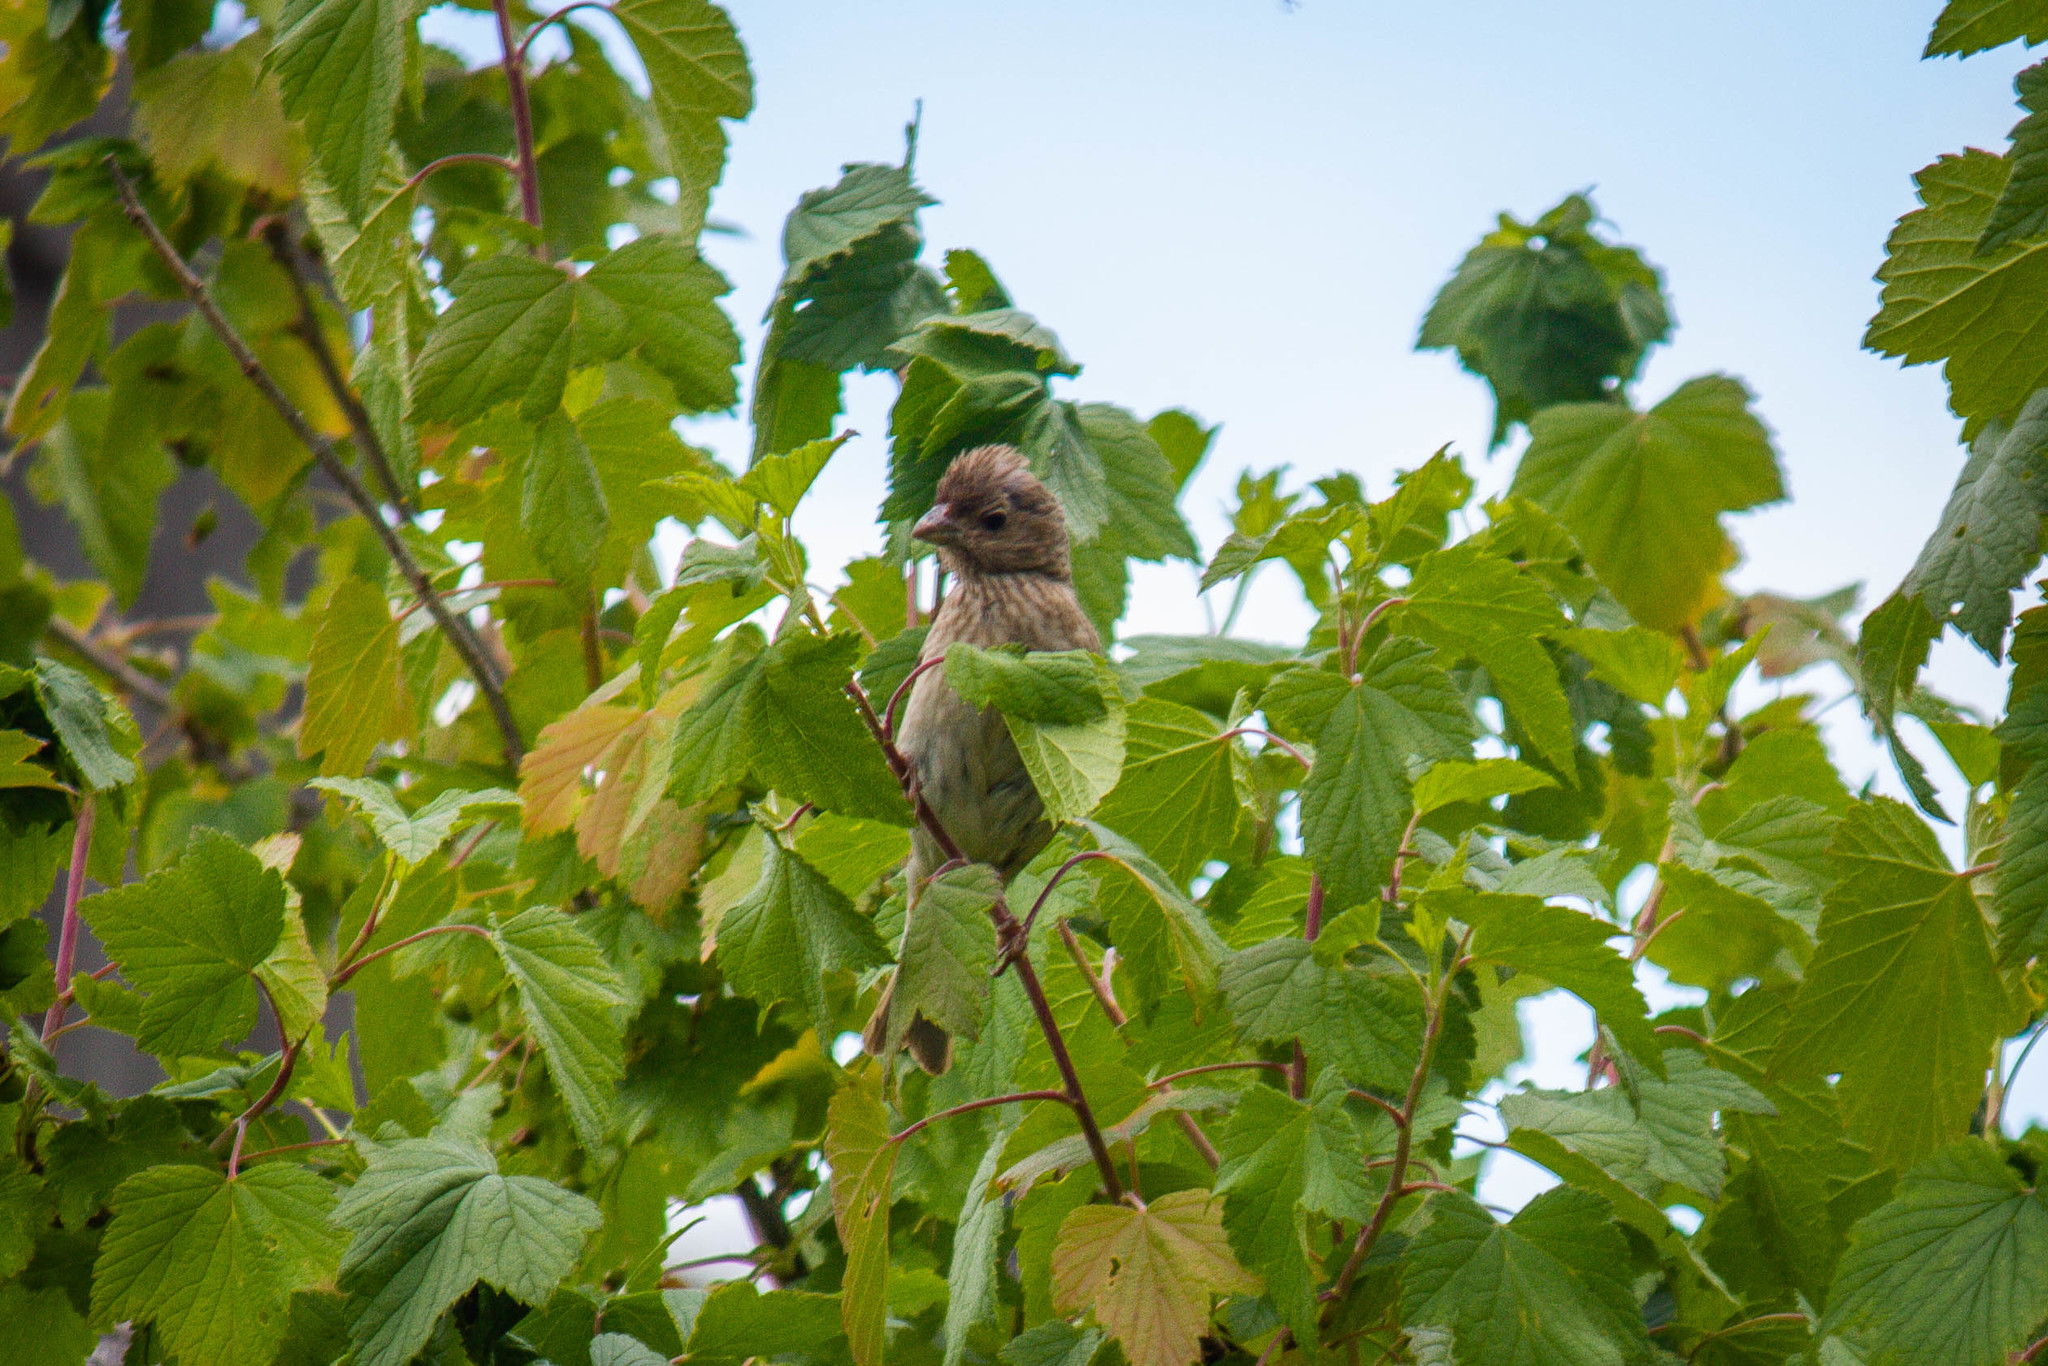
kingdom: Animalia
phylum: Chordata
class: Aves
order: Passeriformes
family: Fringillidae
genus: Carpodacus
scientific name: Carpodacus erythrinus
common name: Common rosefinch
